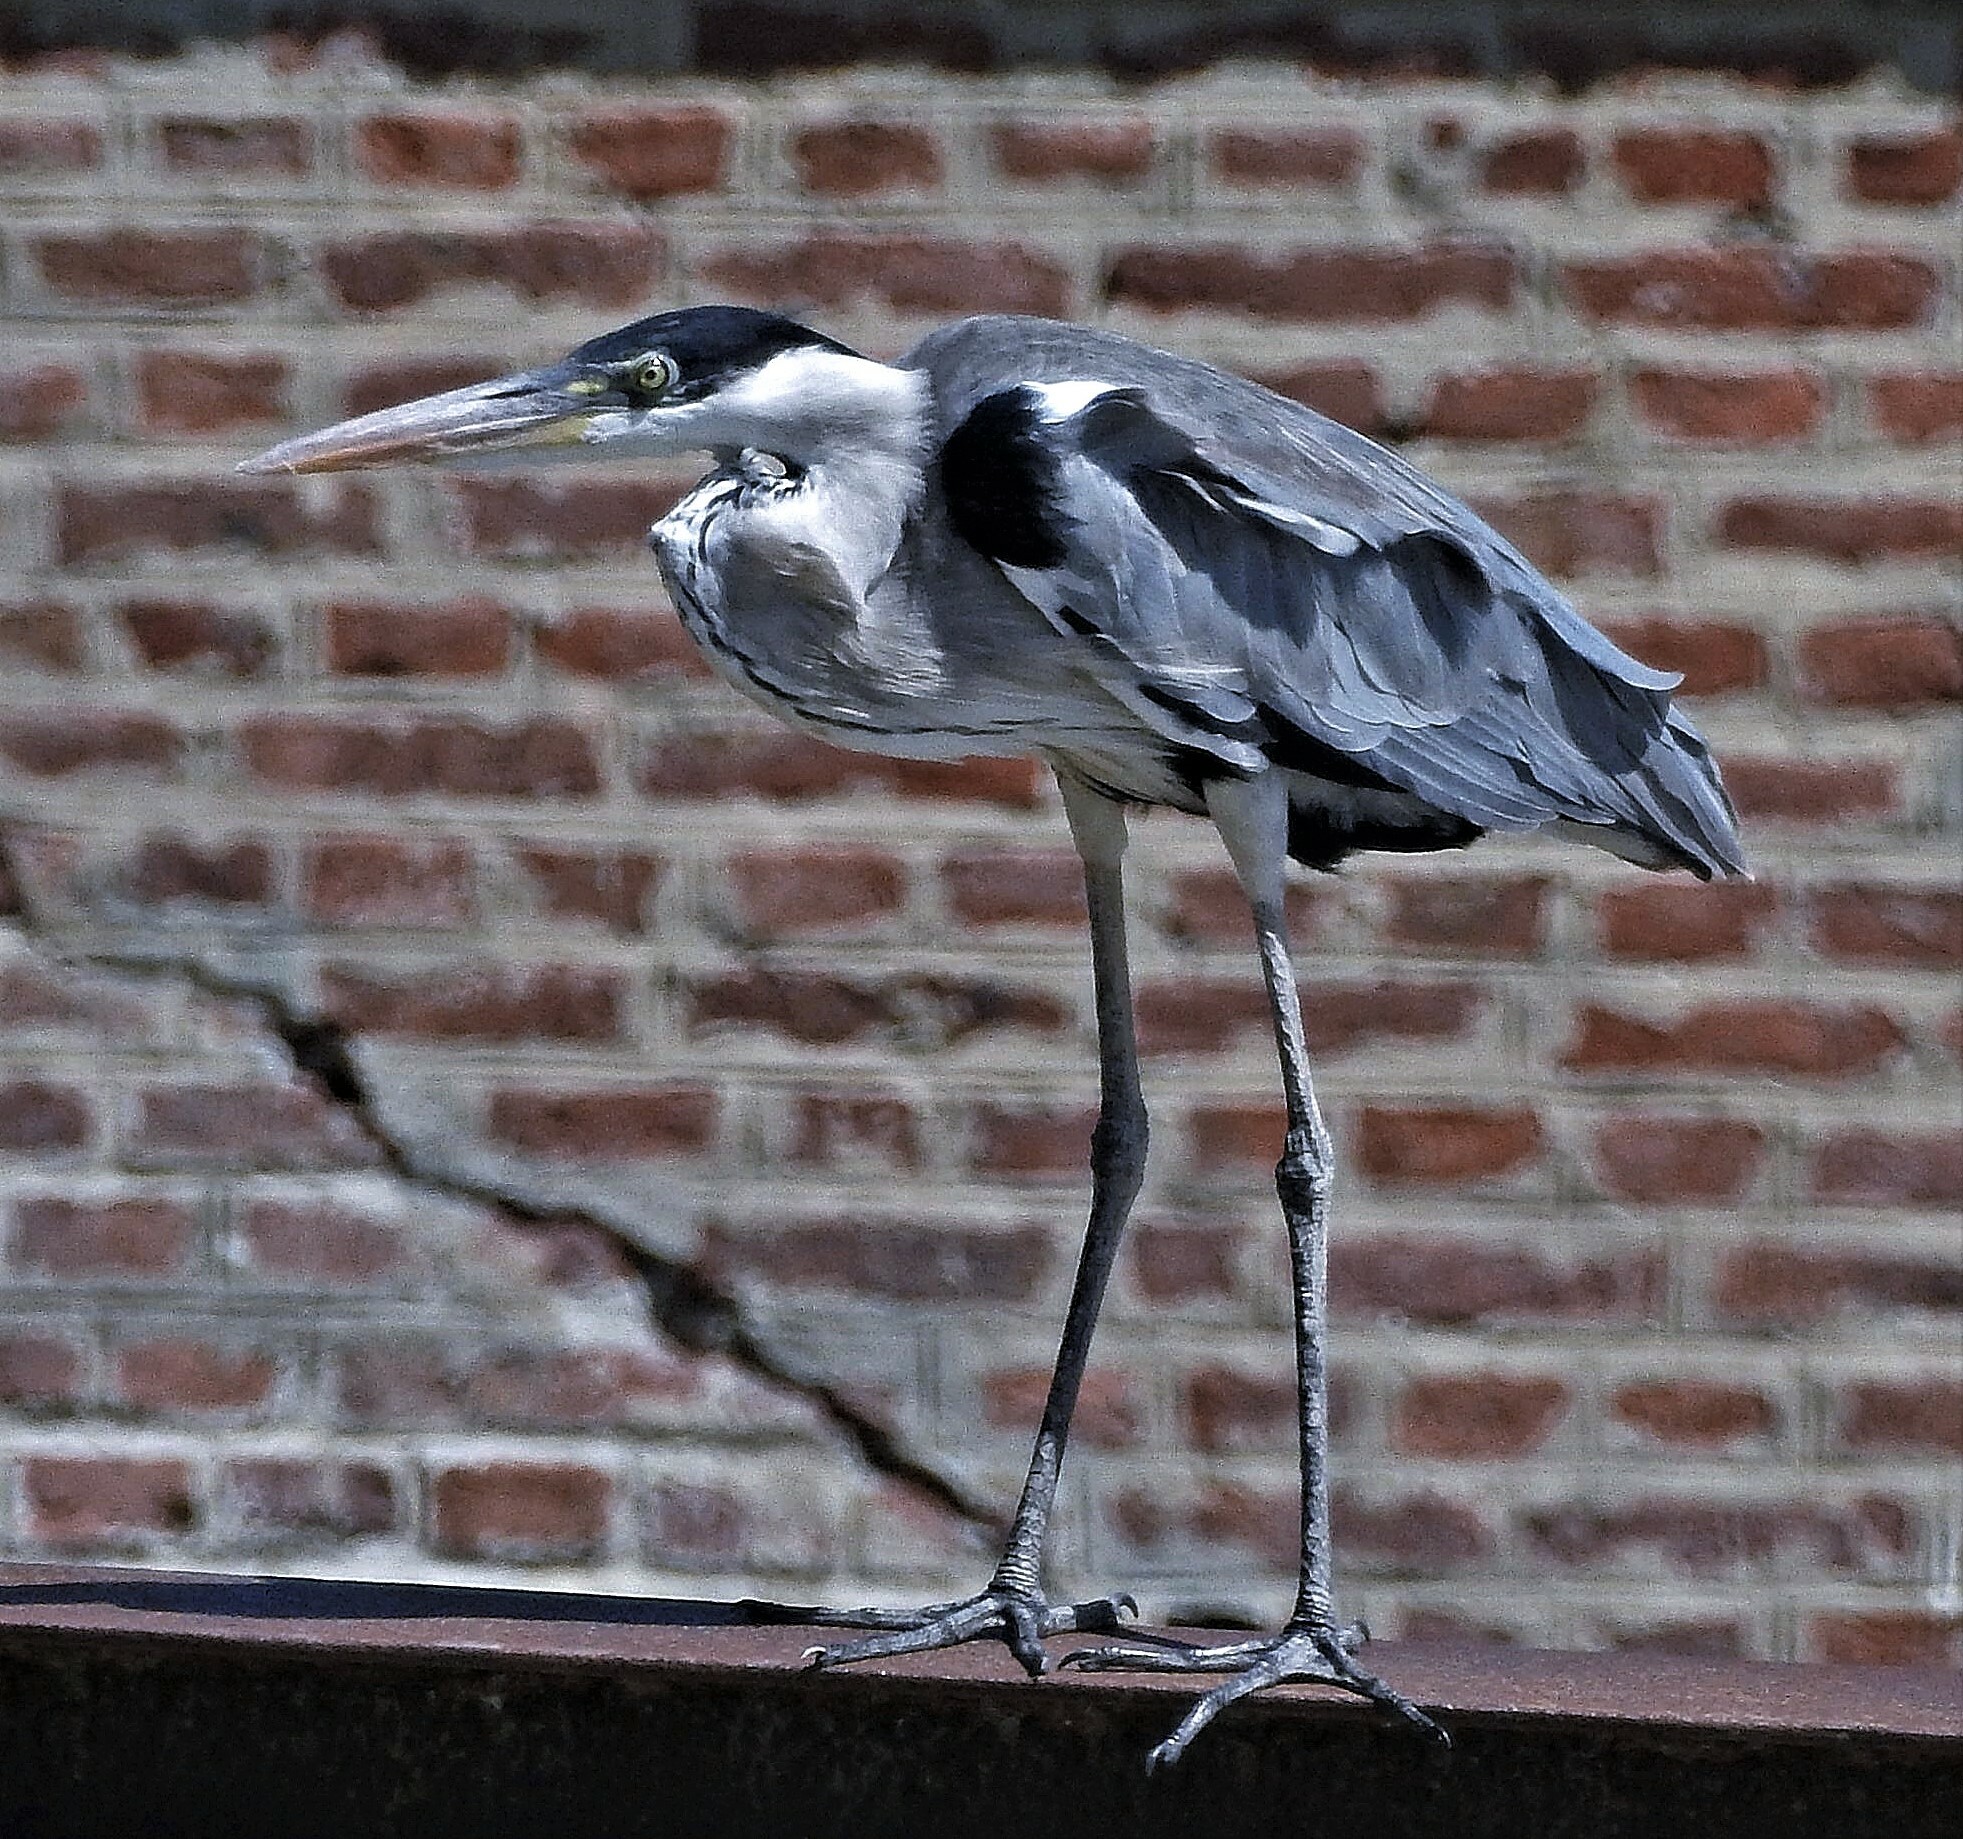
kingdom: Animalia
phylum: Chordata
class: Aves
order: Pelecaniformes
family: Ardeidae
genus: Ardea
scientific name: Ardea cocoi
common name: Cocoi heron
